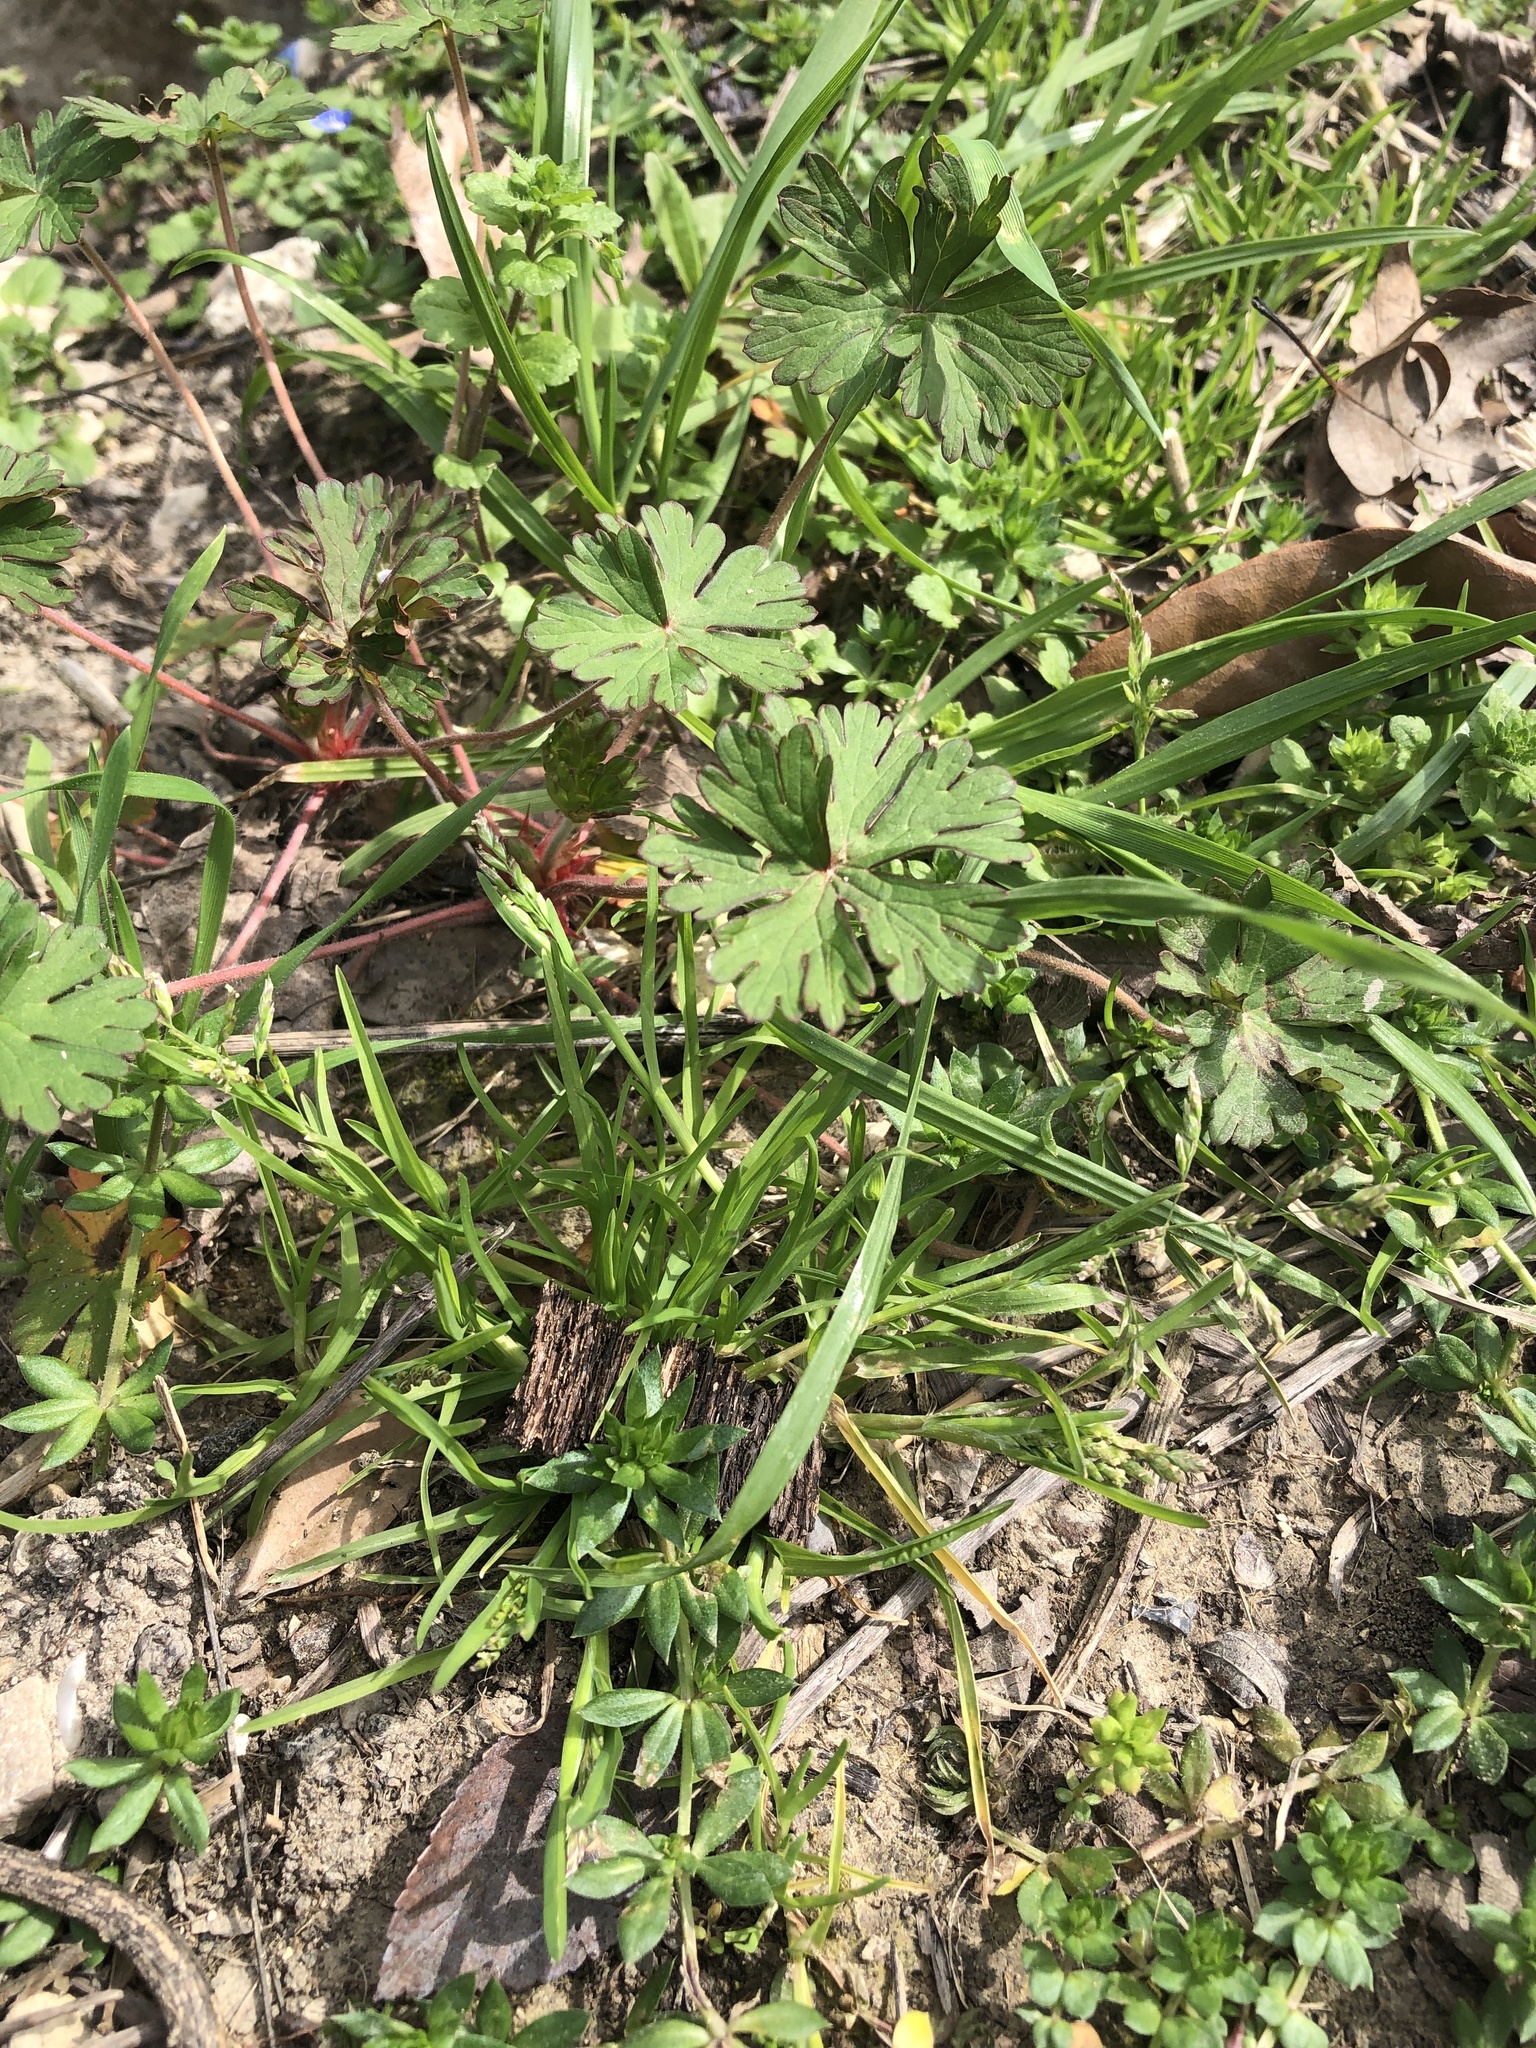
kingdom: Plantae
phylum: Tracheophyta
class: Liliopsida
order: Poales
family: Poaceae
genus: Poa
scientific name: Poa annua
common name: Annual bluegrass
